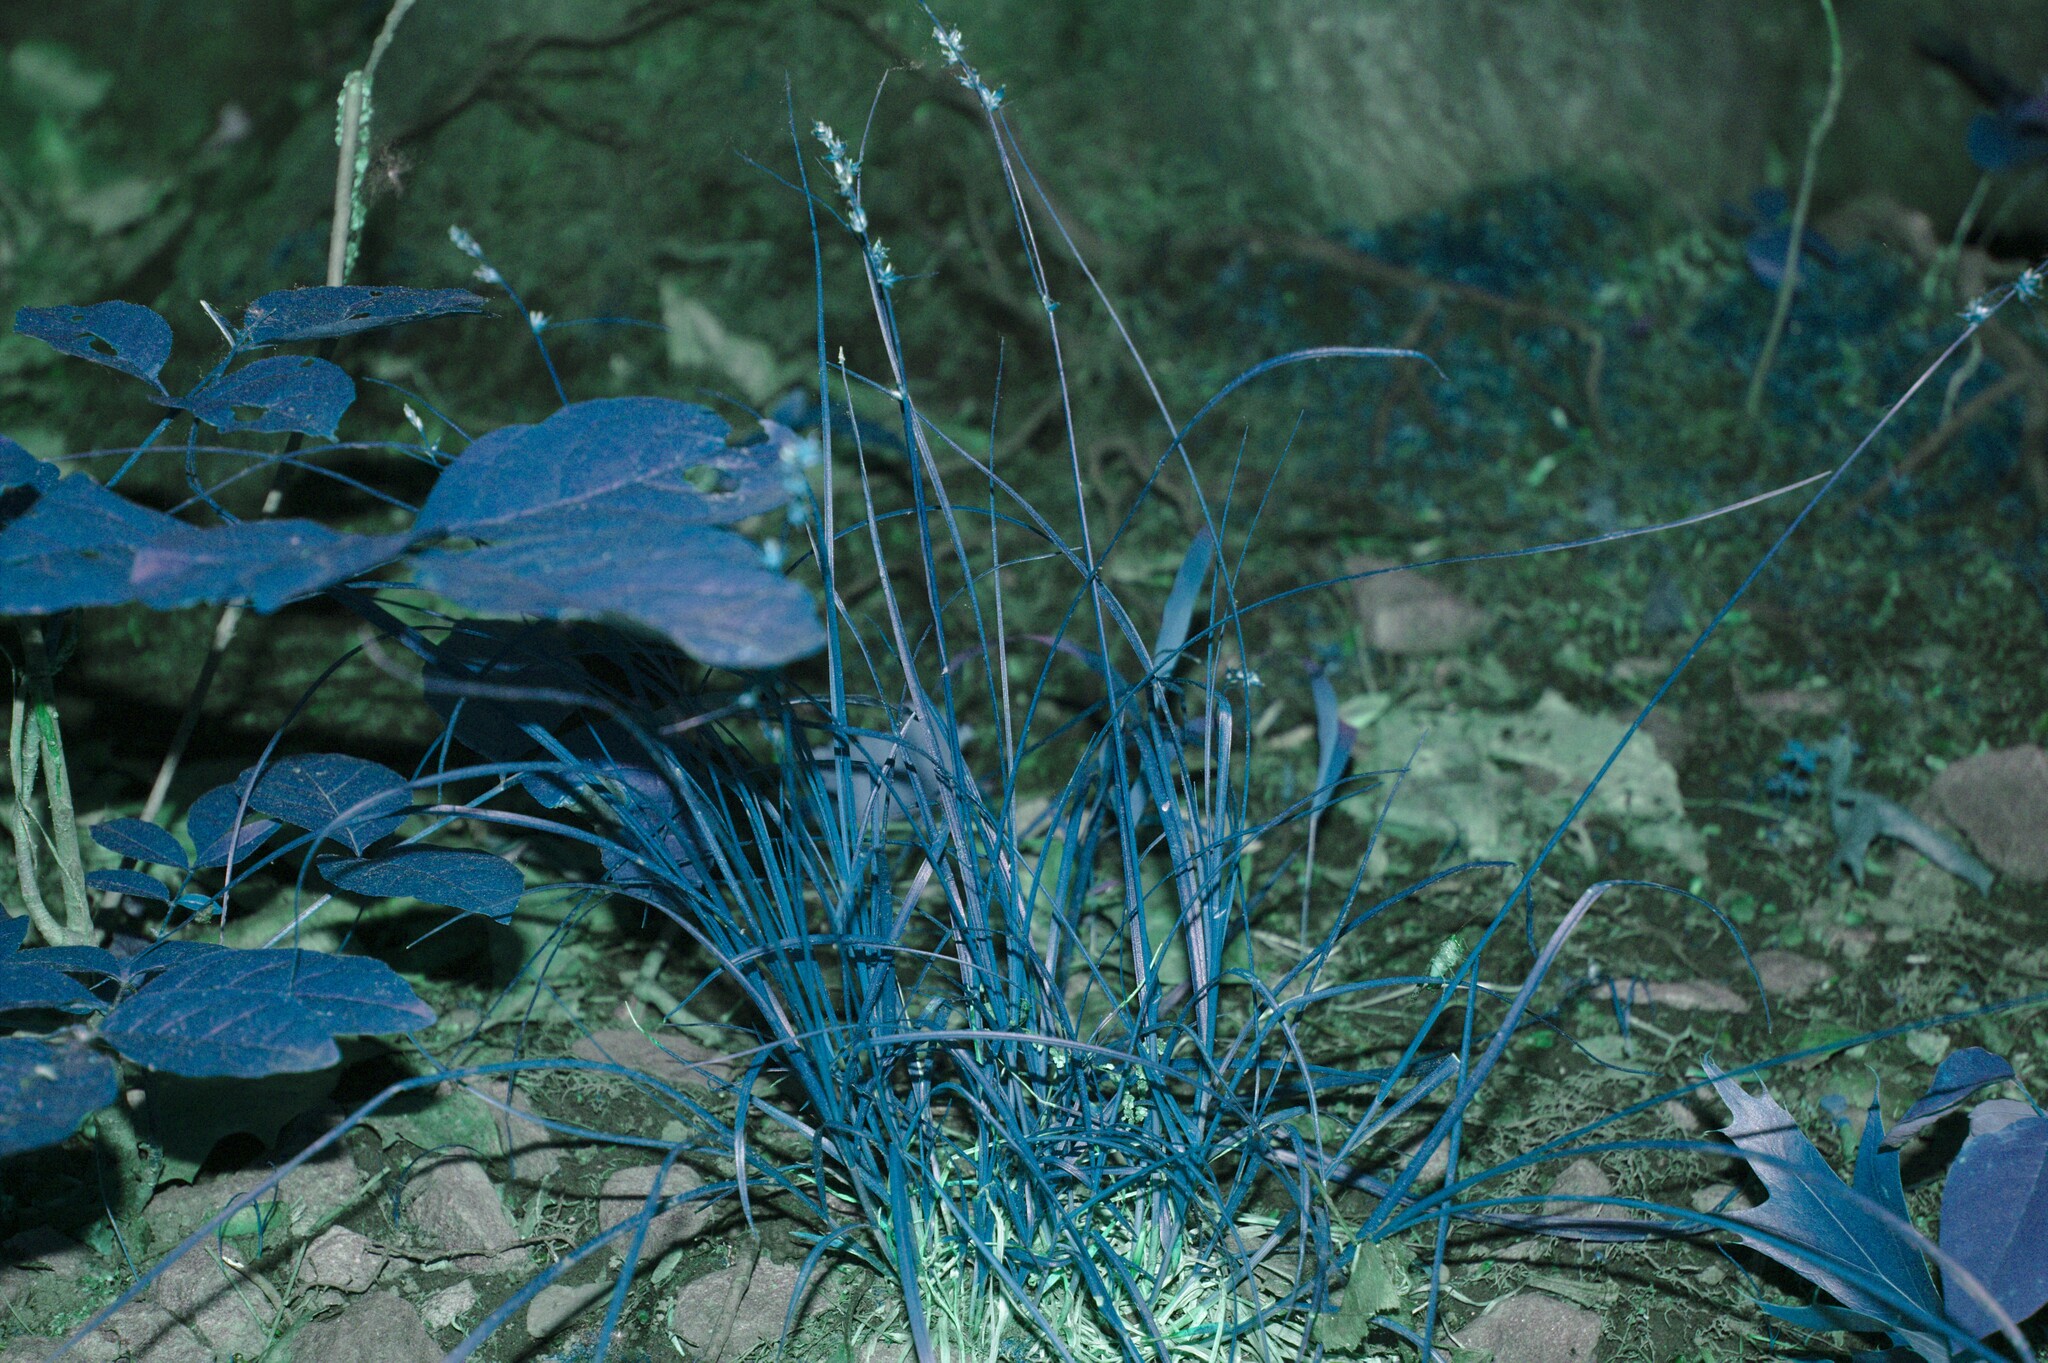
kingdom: Plantae
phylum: Tracheophyta
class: Liliopsida
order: Poales
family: Cyperaceae
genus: Carex
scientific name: Carex rosea
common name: Curly-styled wood sedge
